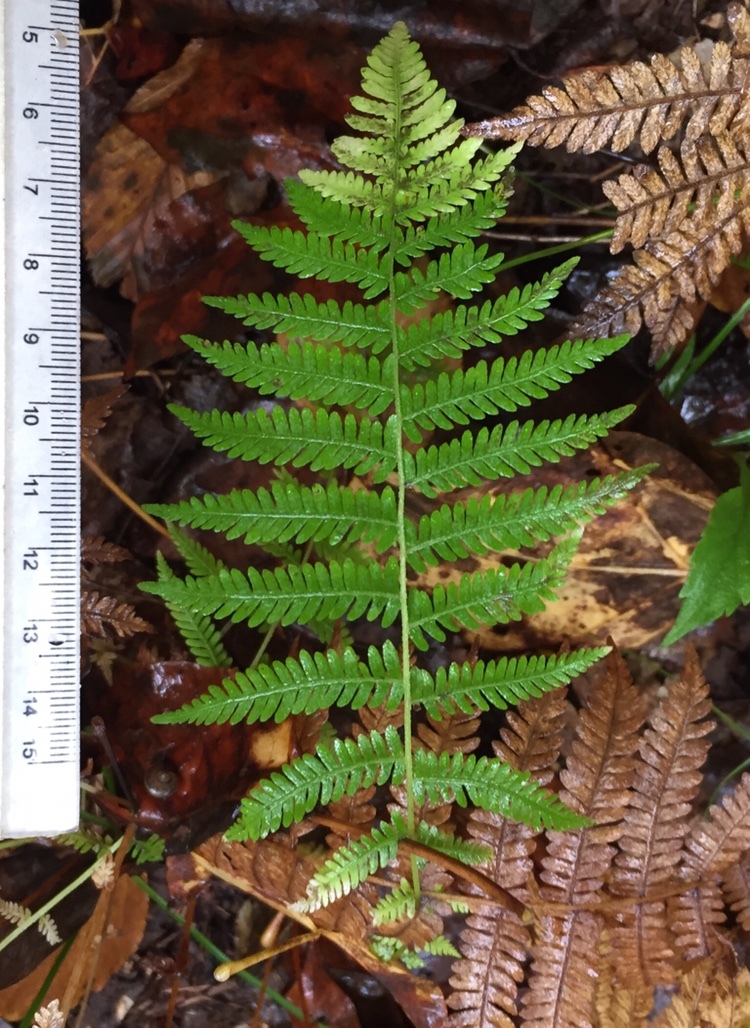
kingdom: Plantae
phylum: Tracheophyta
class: Polypodiopsida
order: Polypodiales
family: Thelypteridaceae
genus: Amauropelta
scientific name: Amauropelta noveboracensis
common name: New york fern
